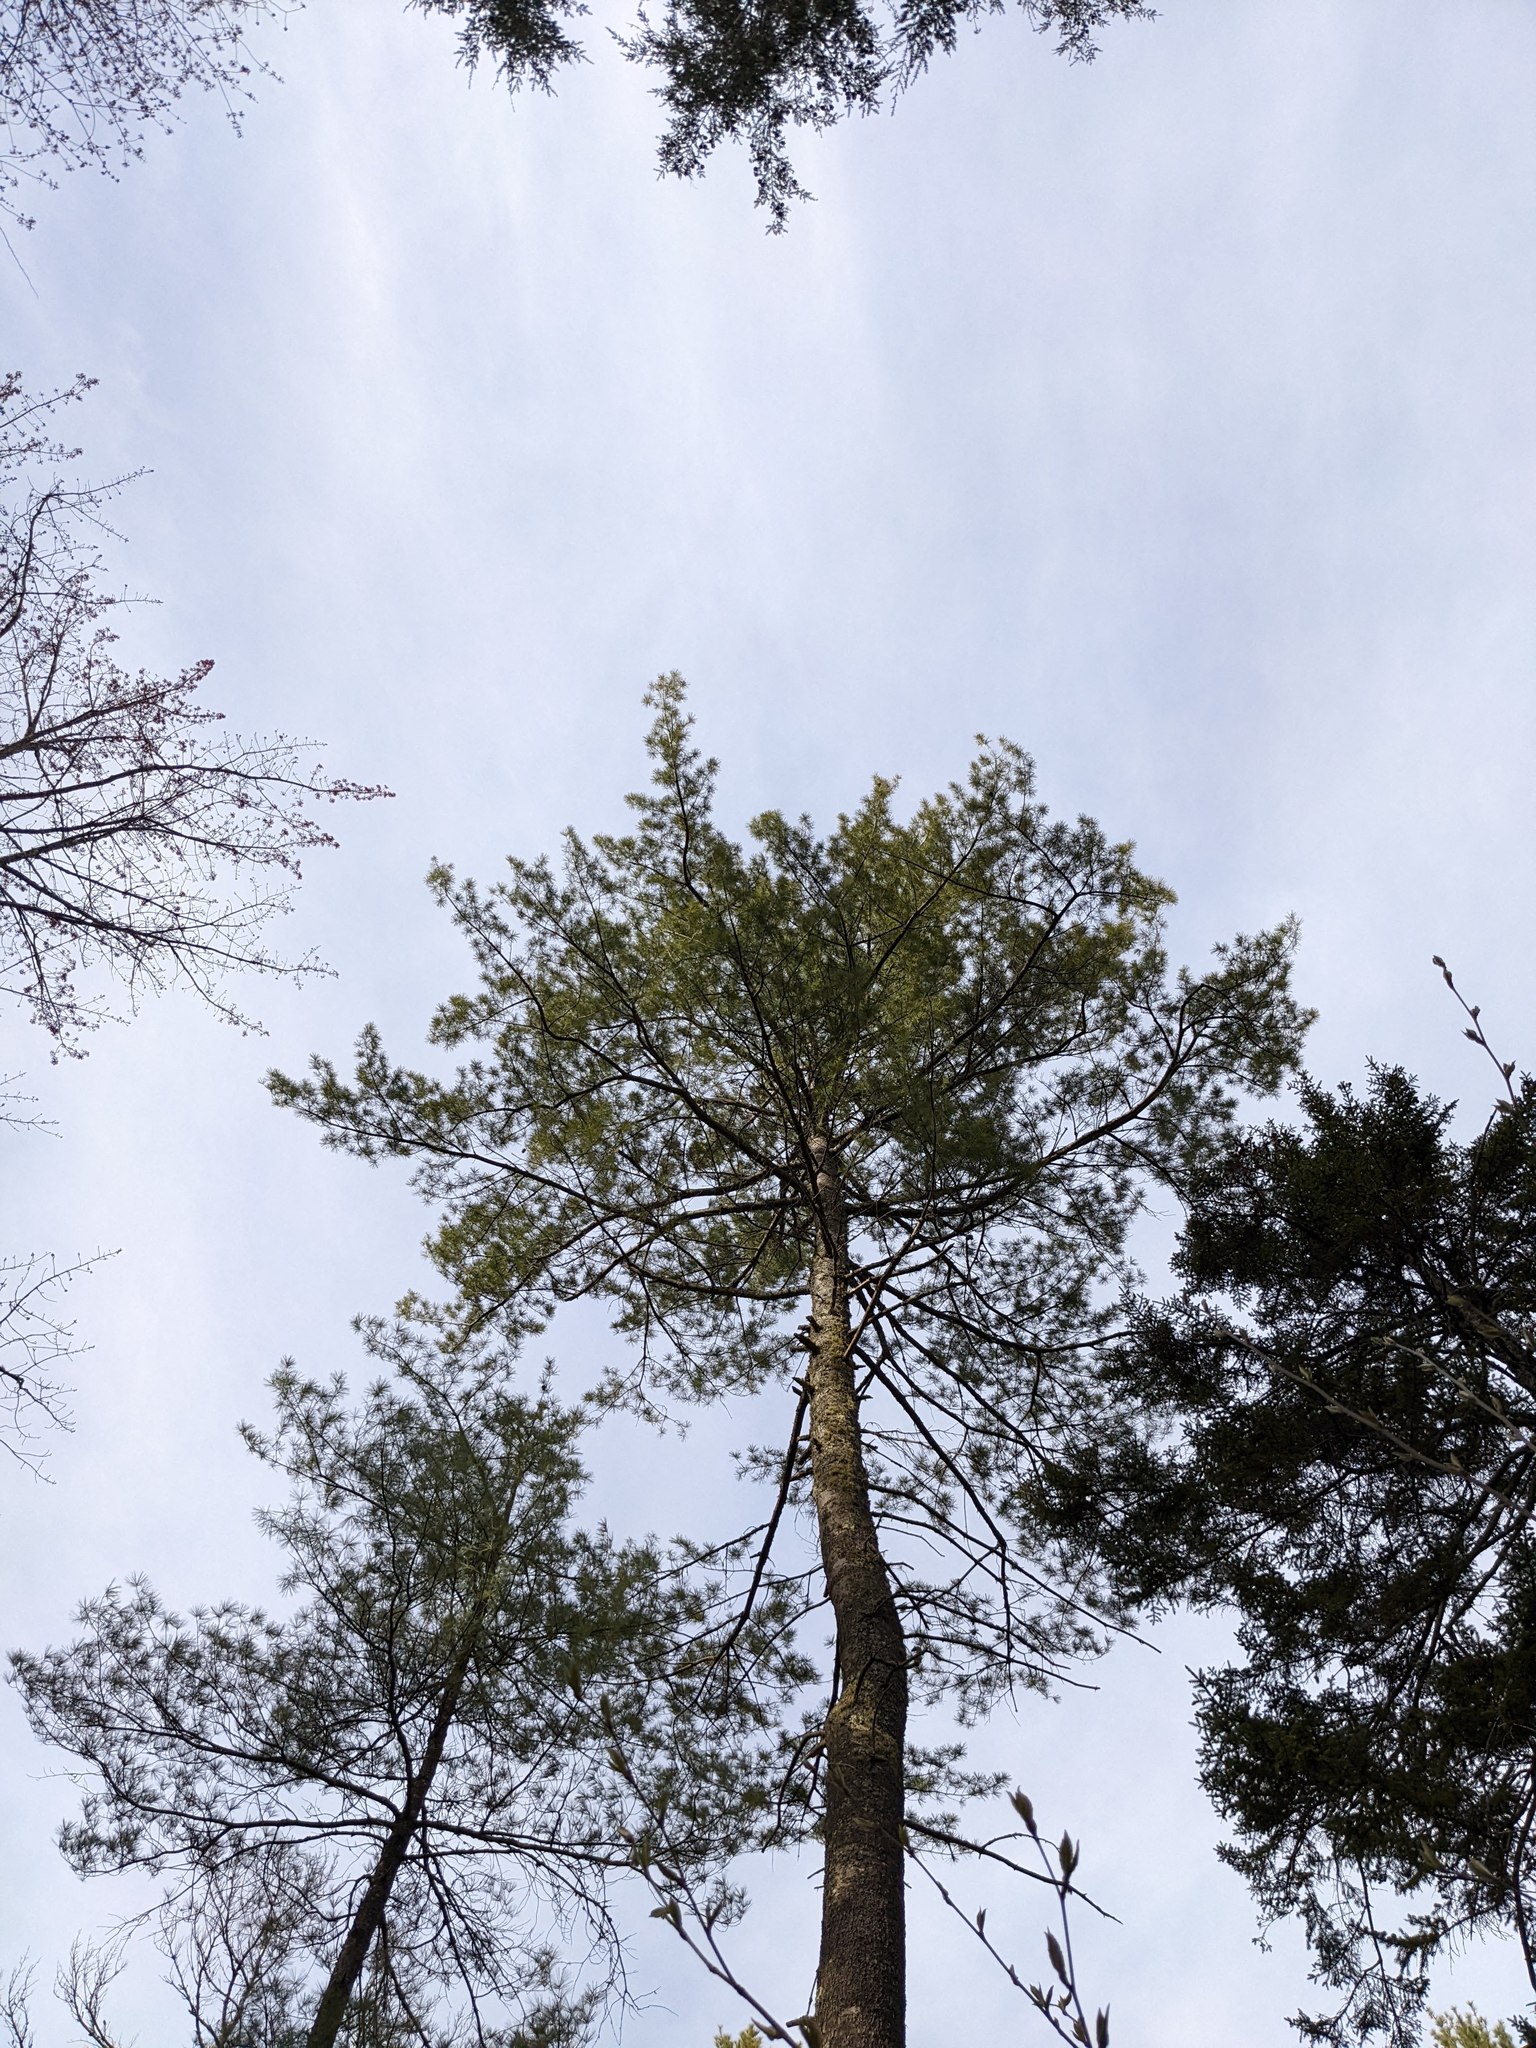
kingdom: Plantae
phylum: Tracheophyta
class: Pinopsida
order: Pinales
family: Pinaceae
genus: Pinus
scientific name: Pinus strobus
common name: Weymouth pine
